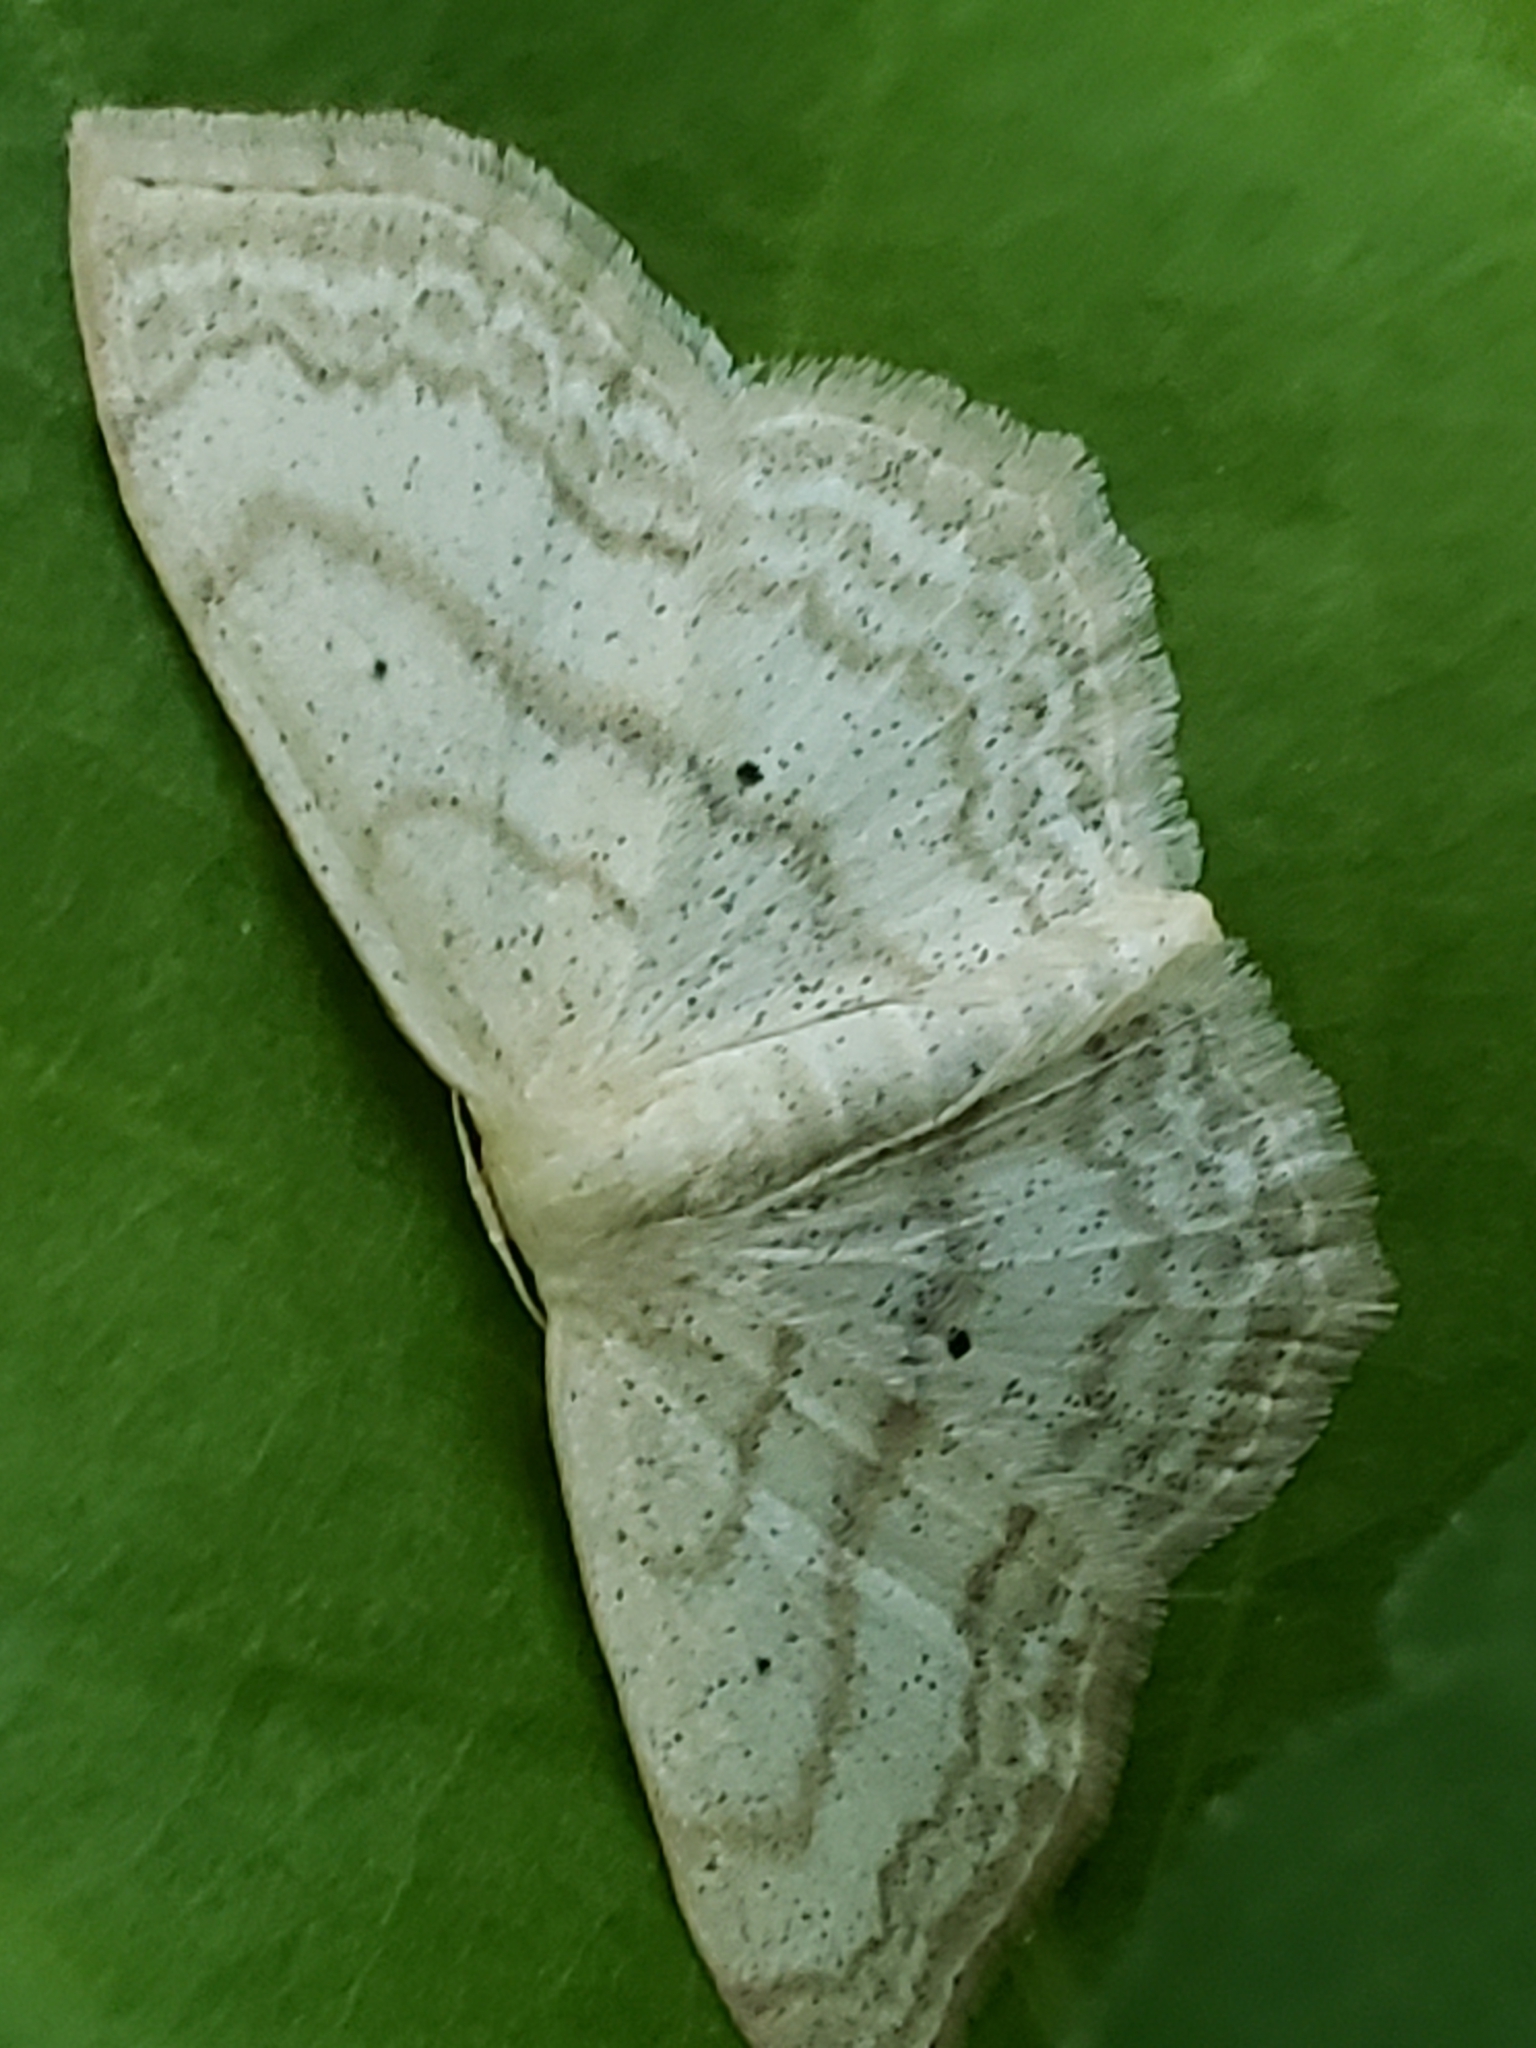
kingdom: Animalia
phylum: Arthropoda
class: Insecta
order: Lepidoptera
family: Geometridae
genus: Scopula
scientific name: Scopula limboundata
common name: Large lace border
